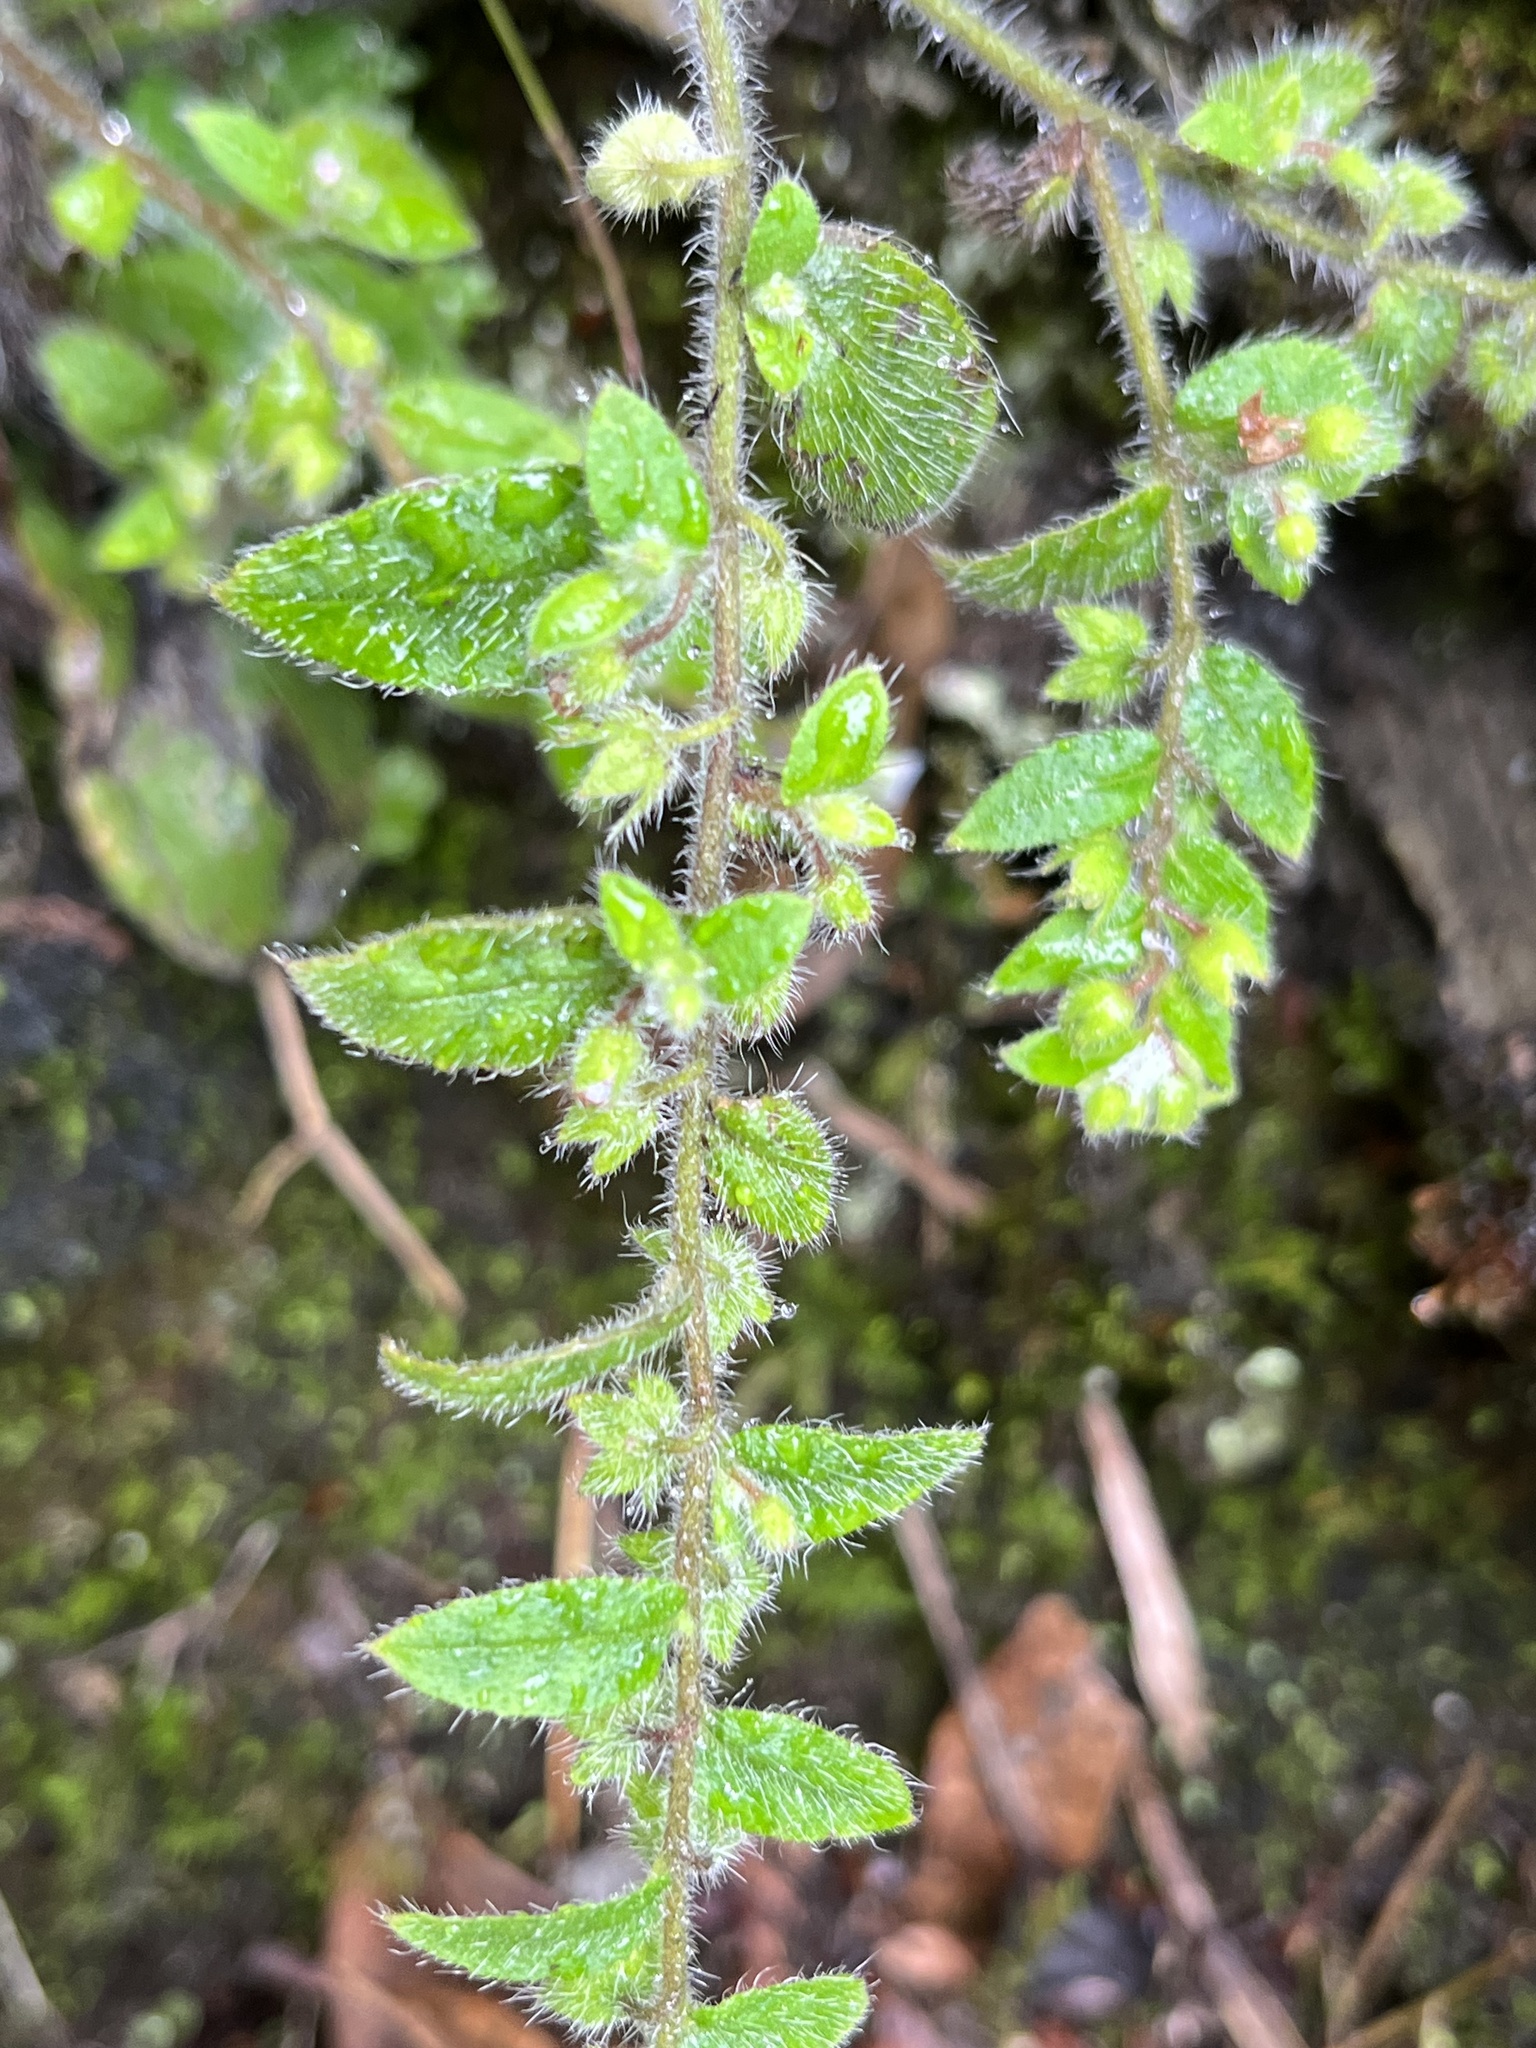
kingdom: Plantae
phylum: Tracheophyta
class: Magnoliopsida
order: Boraginales
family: Boraginaceae
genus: Thyrocarpus
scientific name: Thyrocarpus sampsonii
